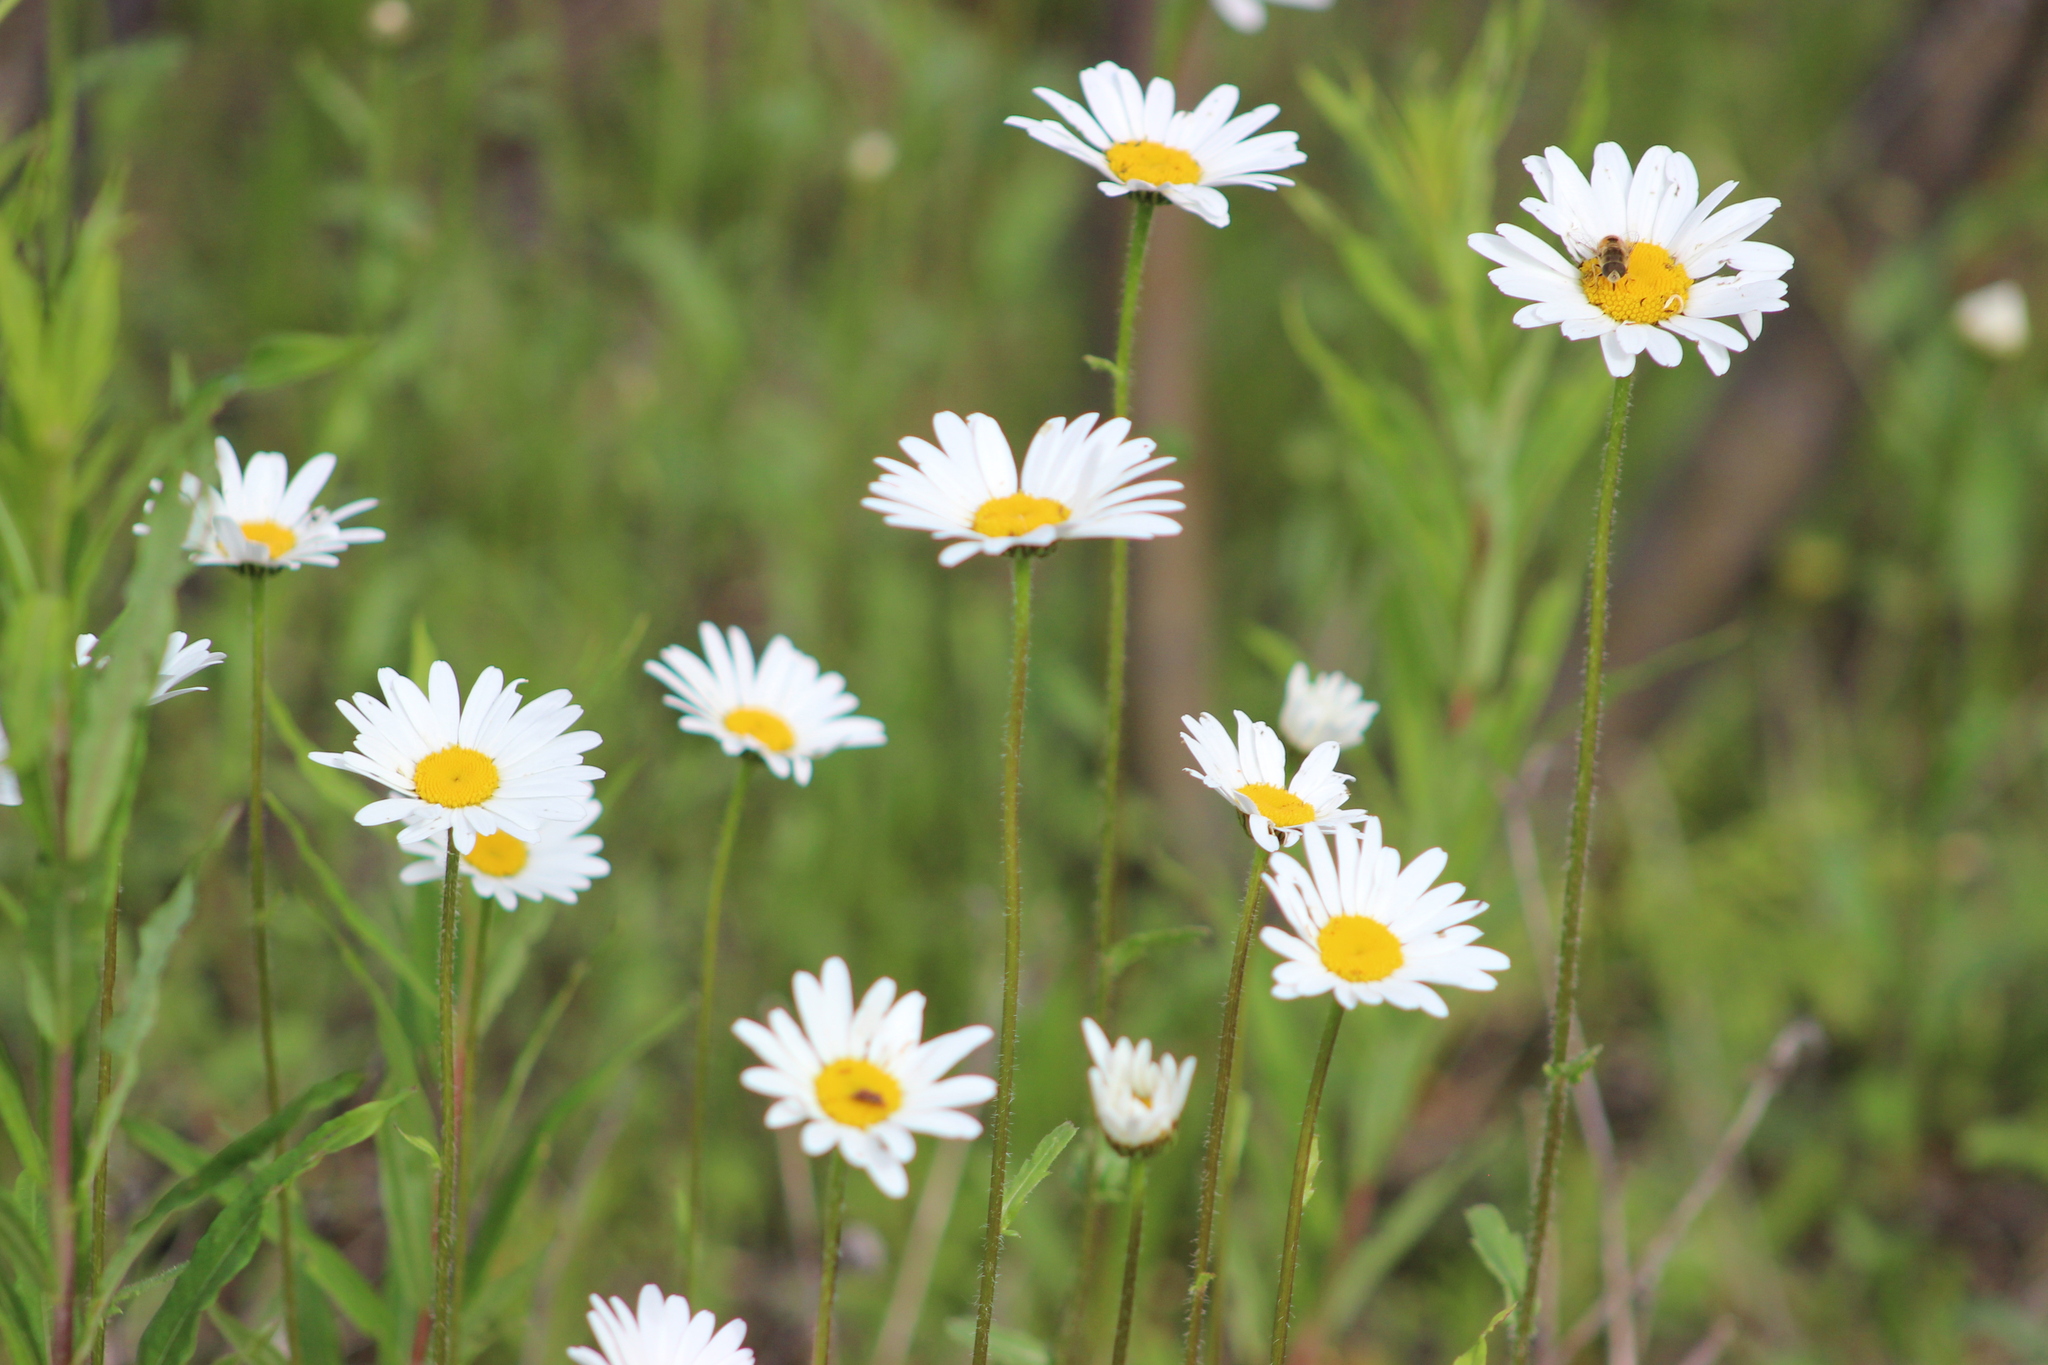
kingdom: Plantae
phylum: Tracheophyta
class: Magnoliopsida
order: Asterales
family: Asteraceae
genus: Leucanthemum
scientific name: Leucanthemum ircutianum
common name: Daisy
